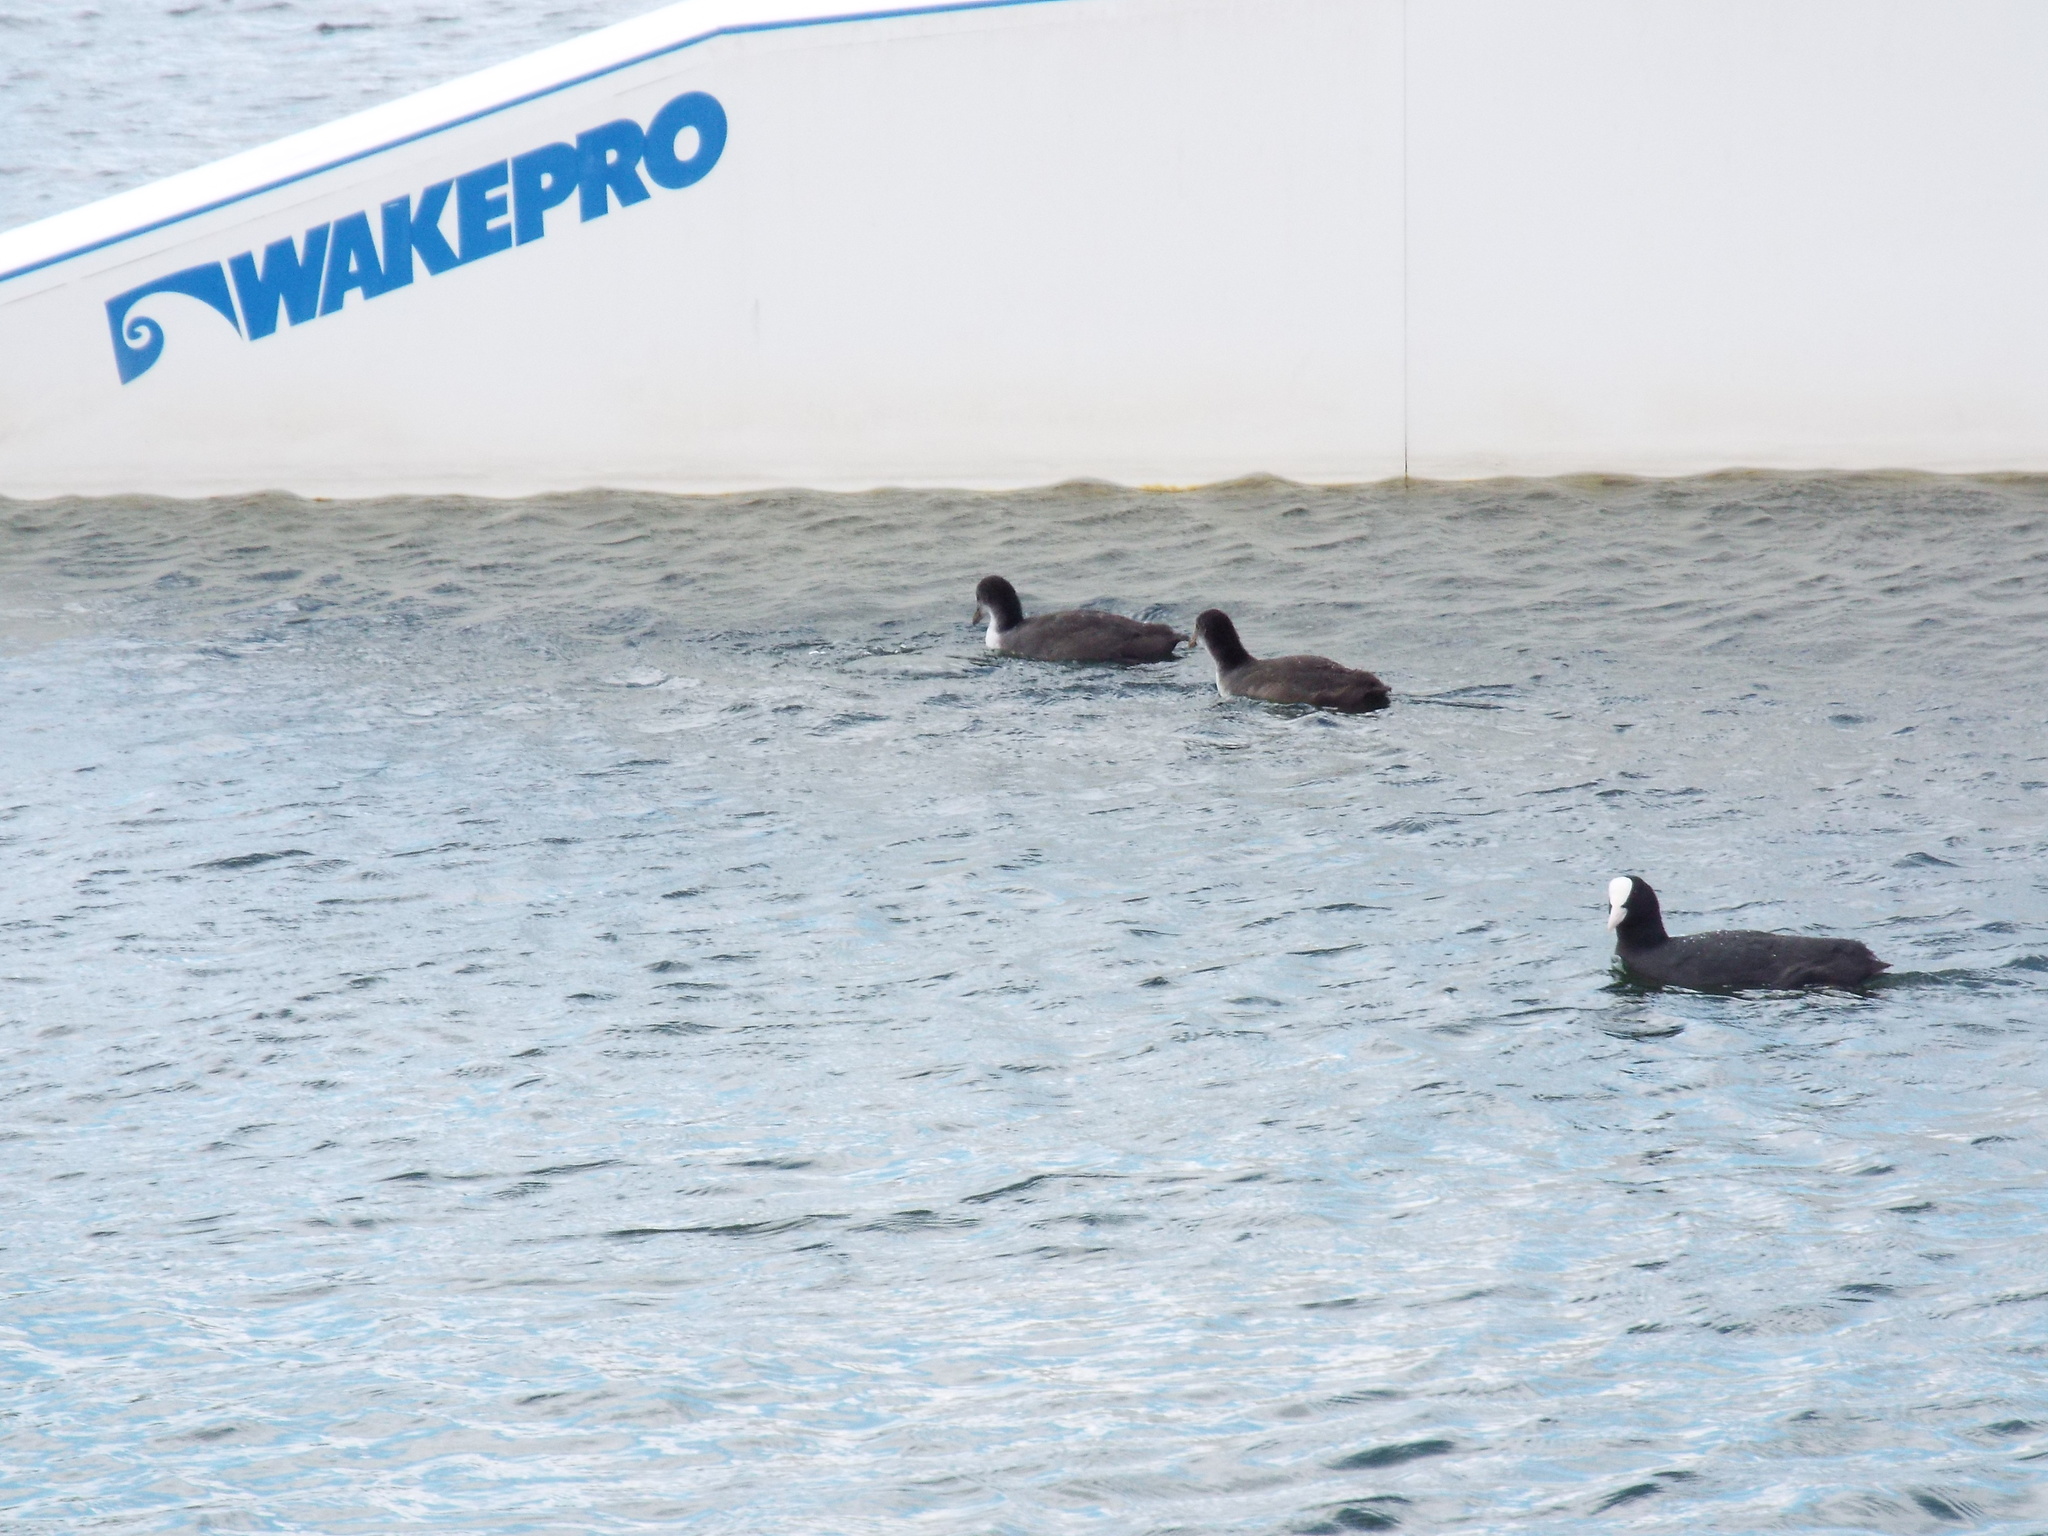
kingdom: Animalia
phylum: Chordata
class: Aves
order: Gruiformes
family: Rallidae
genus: Fulica
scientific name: Fulica atra
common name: Eurasian coot
